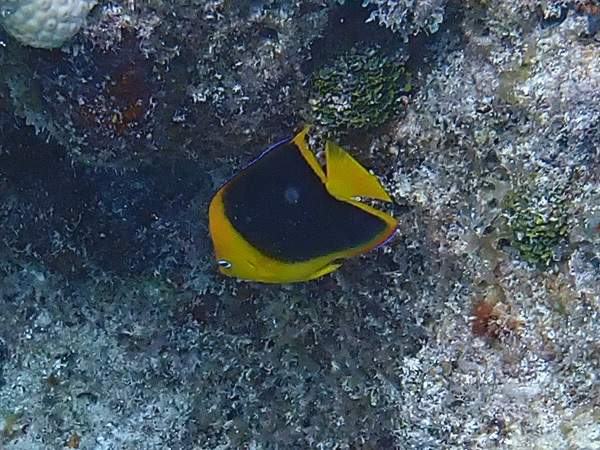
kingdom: Animalia
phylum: Chordata
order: Perciformes
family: Pomacanthidae
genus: Holacanthus
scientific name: Holacanthus tricolor
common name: Rock beauty
